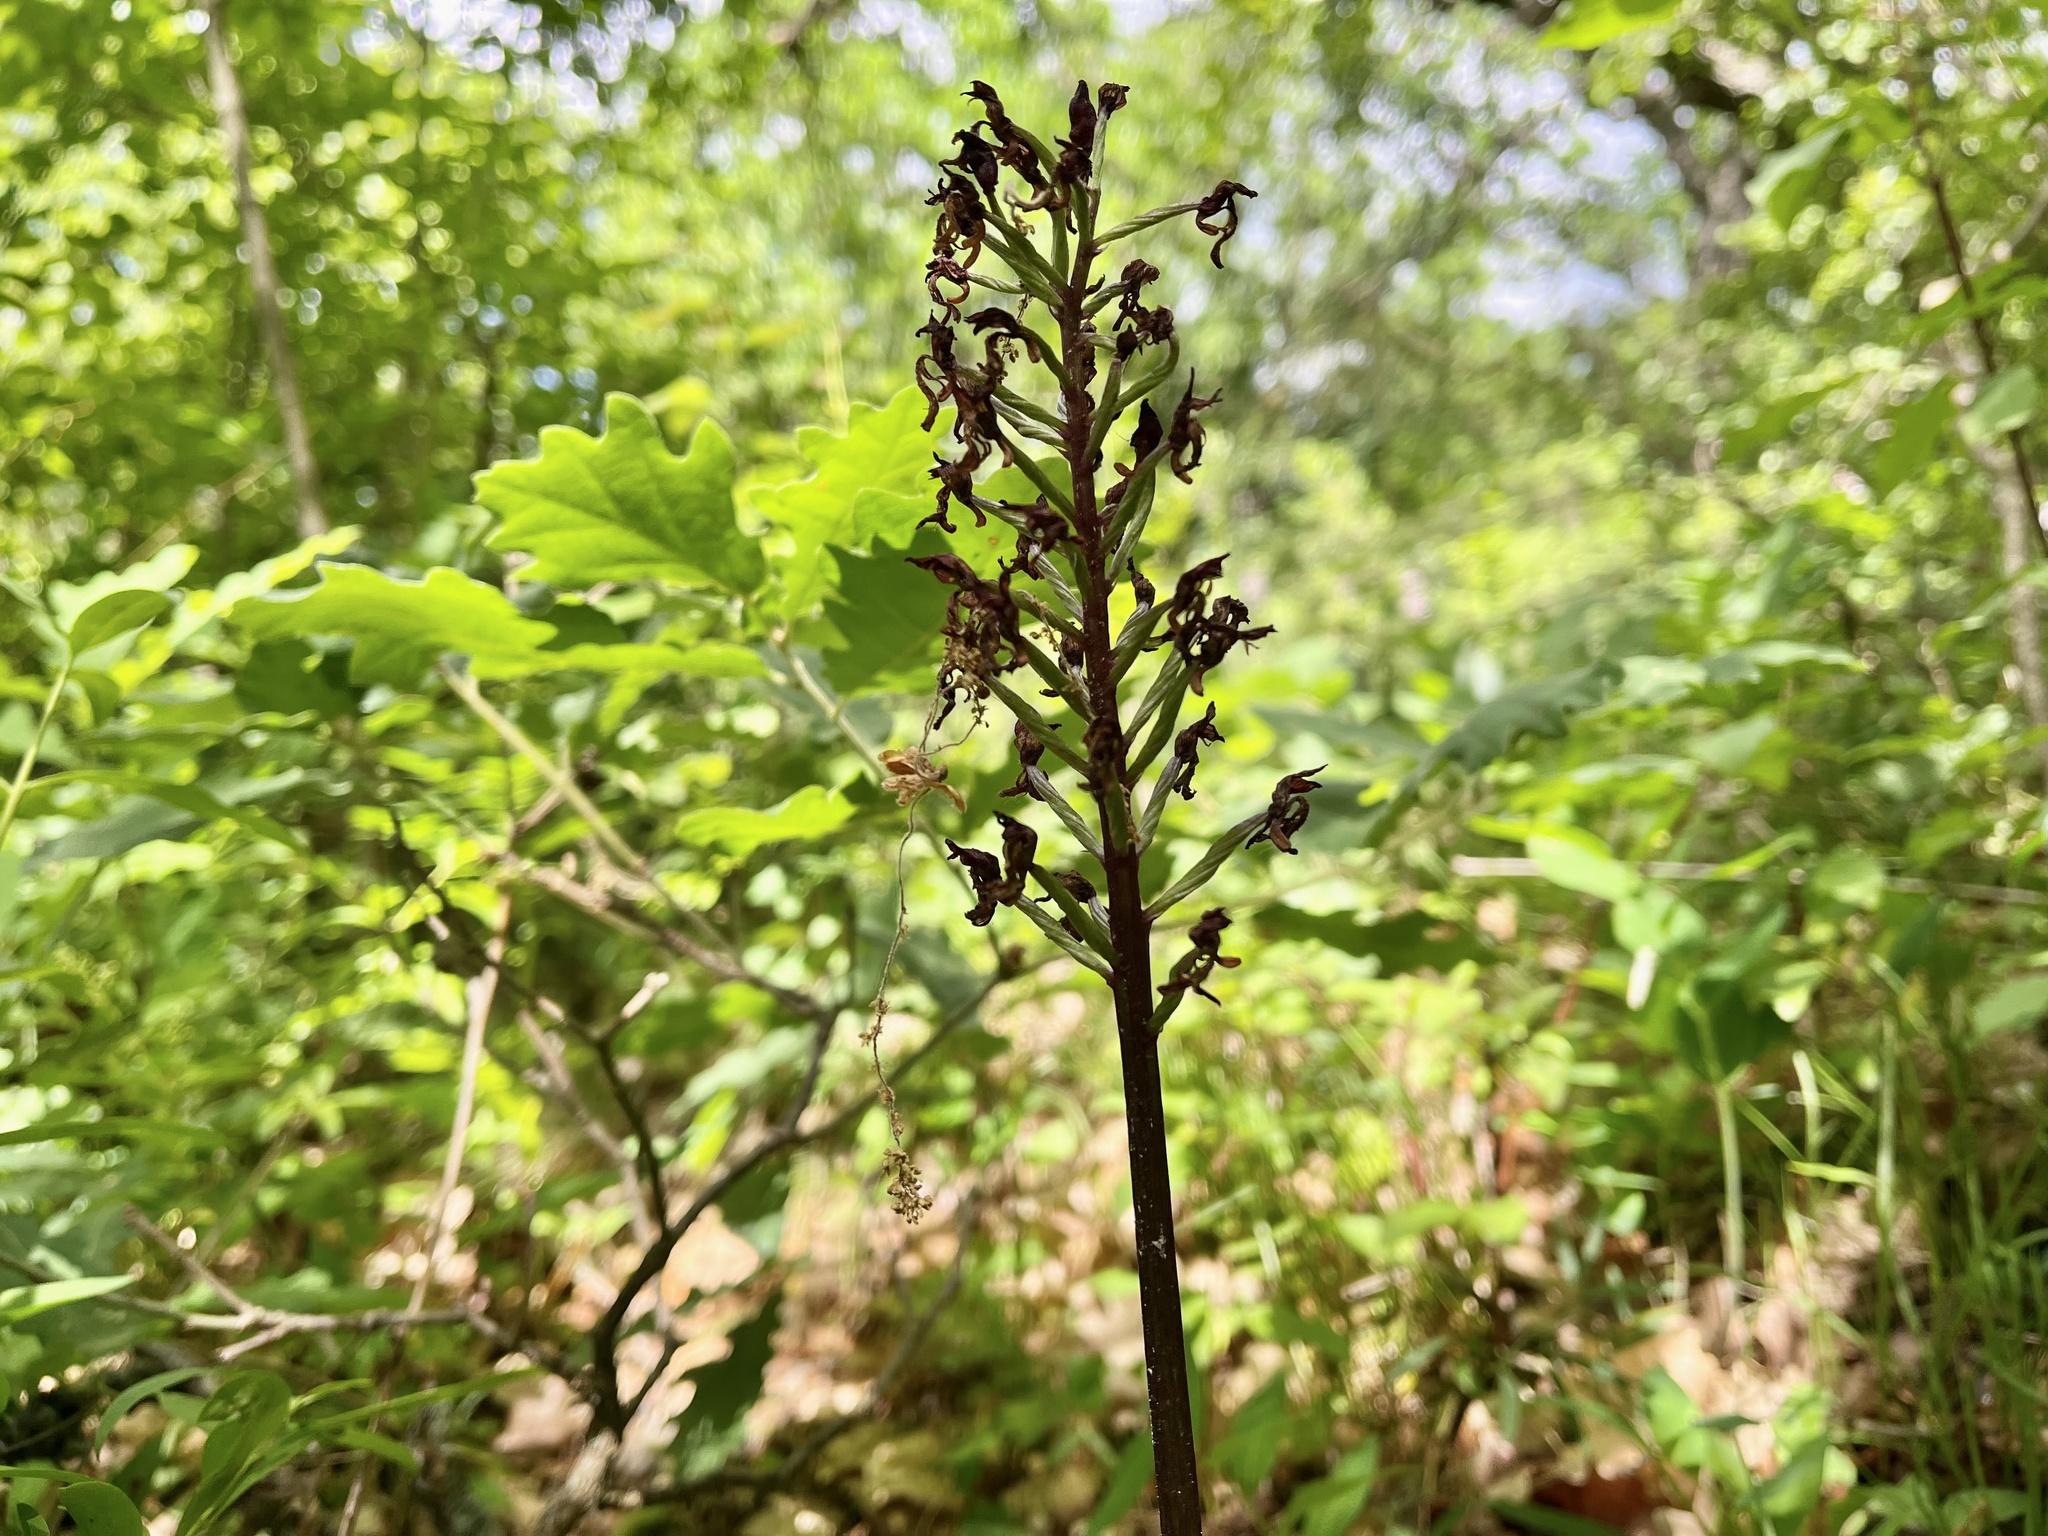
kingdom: Plantae
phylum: Tracheophyta
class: Liliopsida
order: Asparagales
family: Orchidaceae
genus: Orchis
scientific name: Orchis purpurea
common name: Lady orchid
